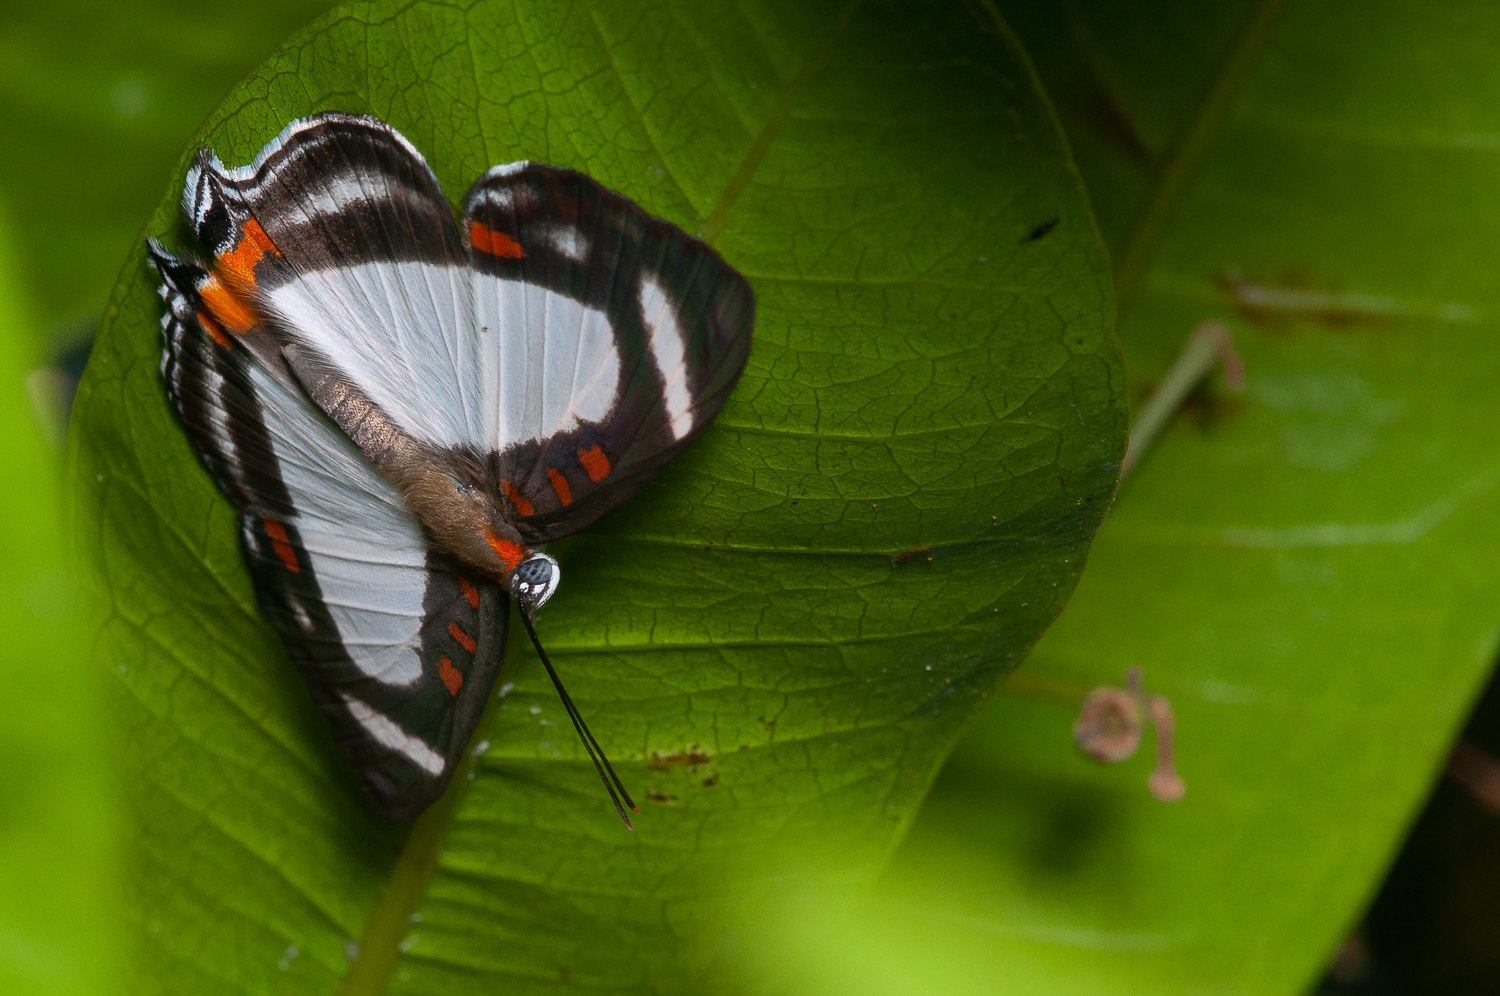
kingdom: Animalia
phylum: Arthropoda
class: Insecta
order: Lepidoptera
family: Riodinidae
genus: Thisbe
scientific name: Thisbe lycorias
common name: Banner metalmark
